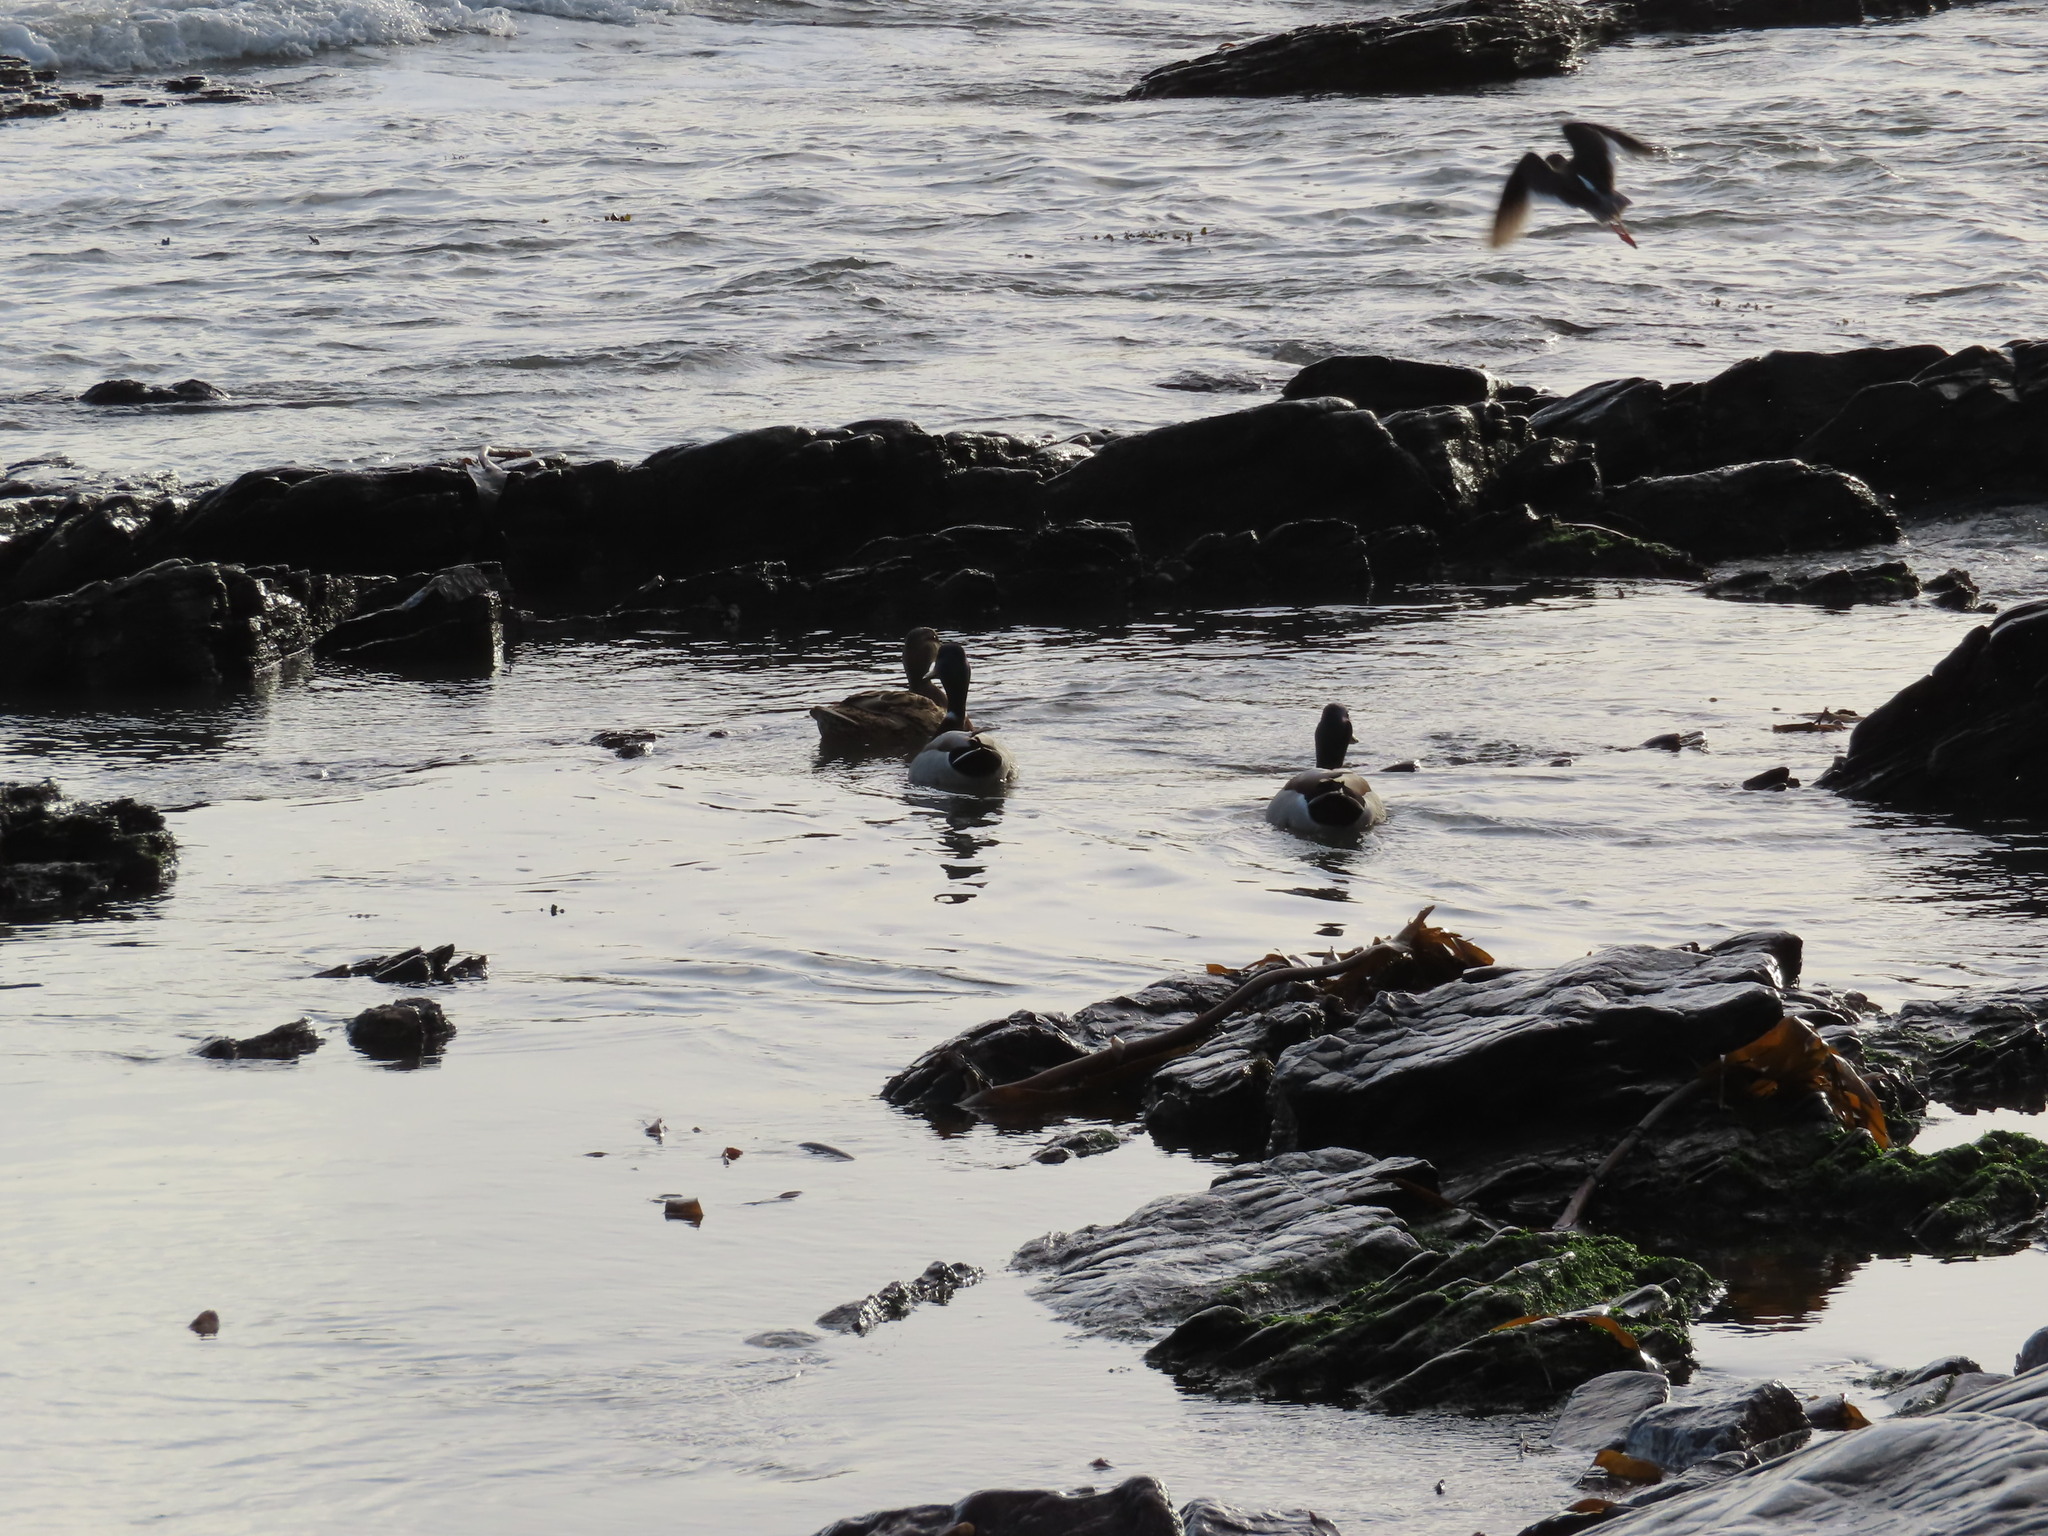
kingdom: Animalia
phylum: Chordata
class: Aves
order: Anseriformes
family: Anatidae
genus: Anas
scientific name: Anas platyrhynchos
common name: Mallard
